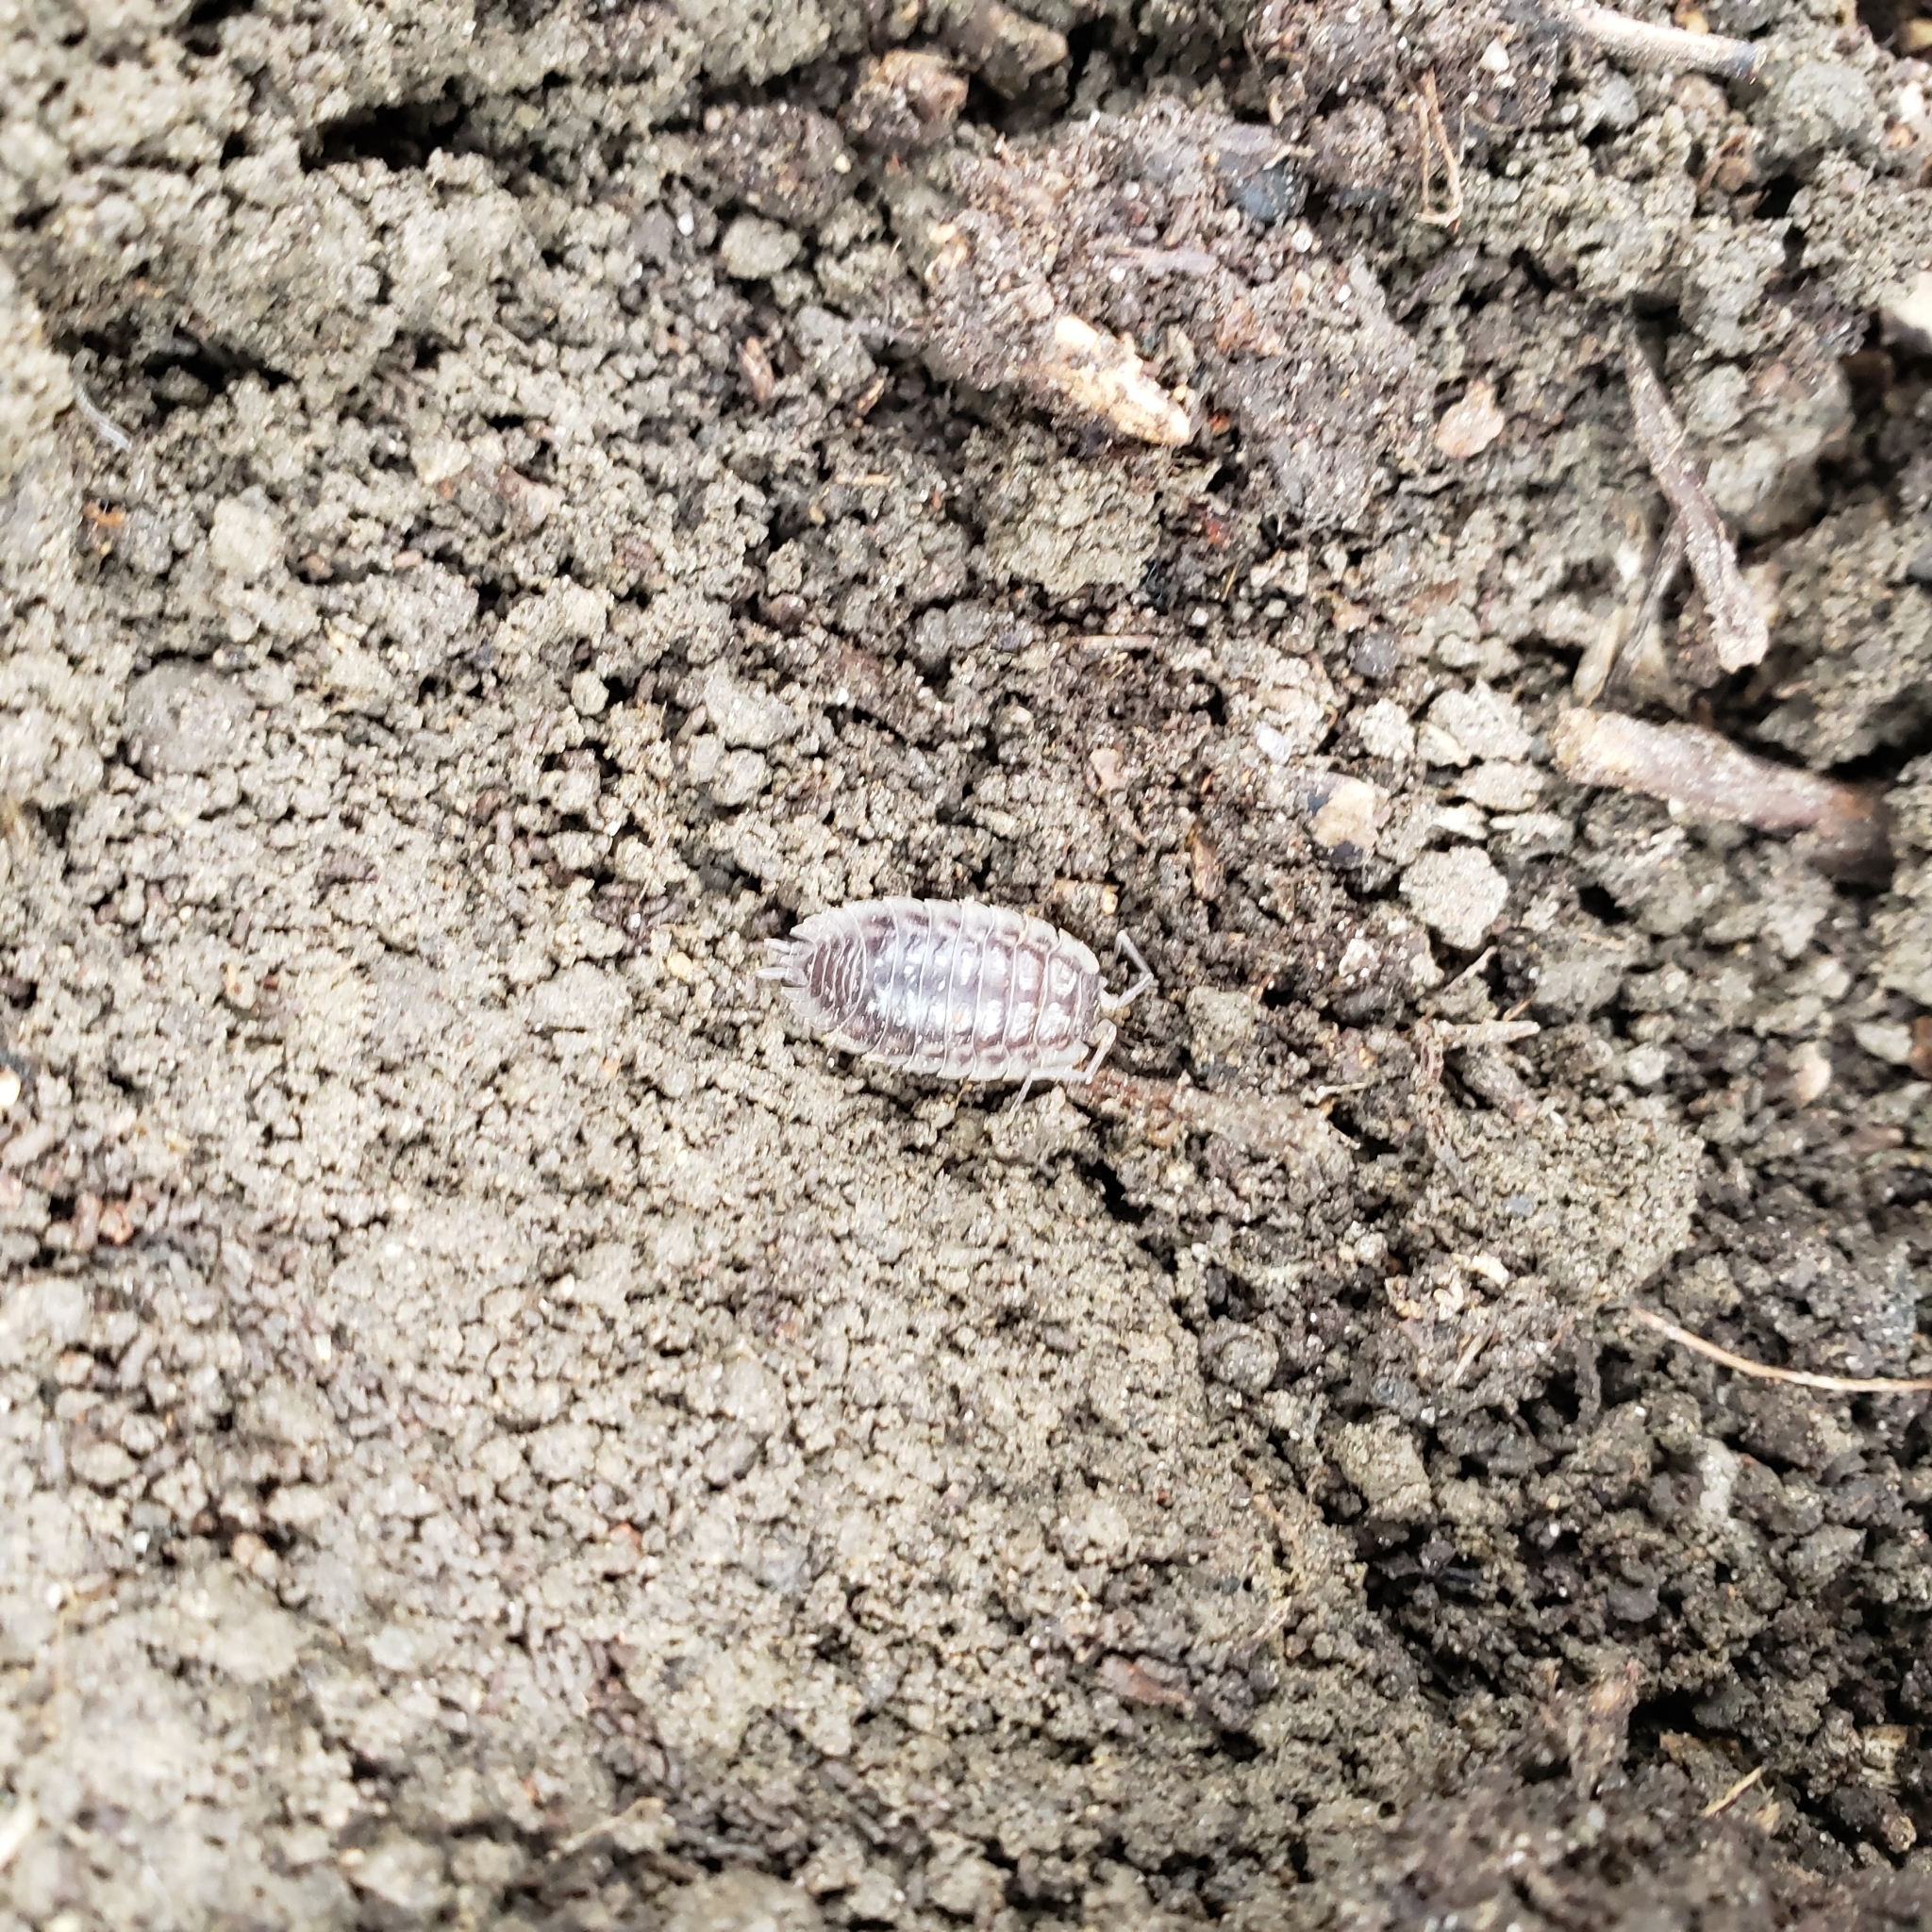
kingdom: Animalia
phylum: Arthropoda
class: Malacostraca
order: Isopoda
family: Oniscidae
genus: Oniscus
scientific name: Oniscus asellus
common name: Common shiny woodlouse
